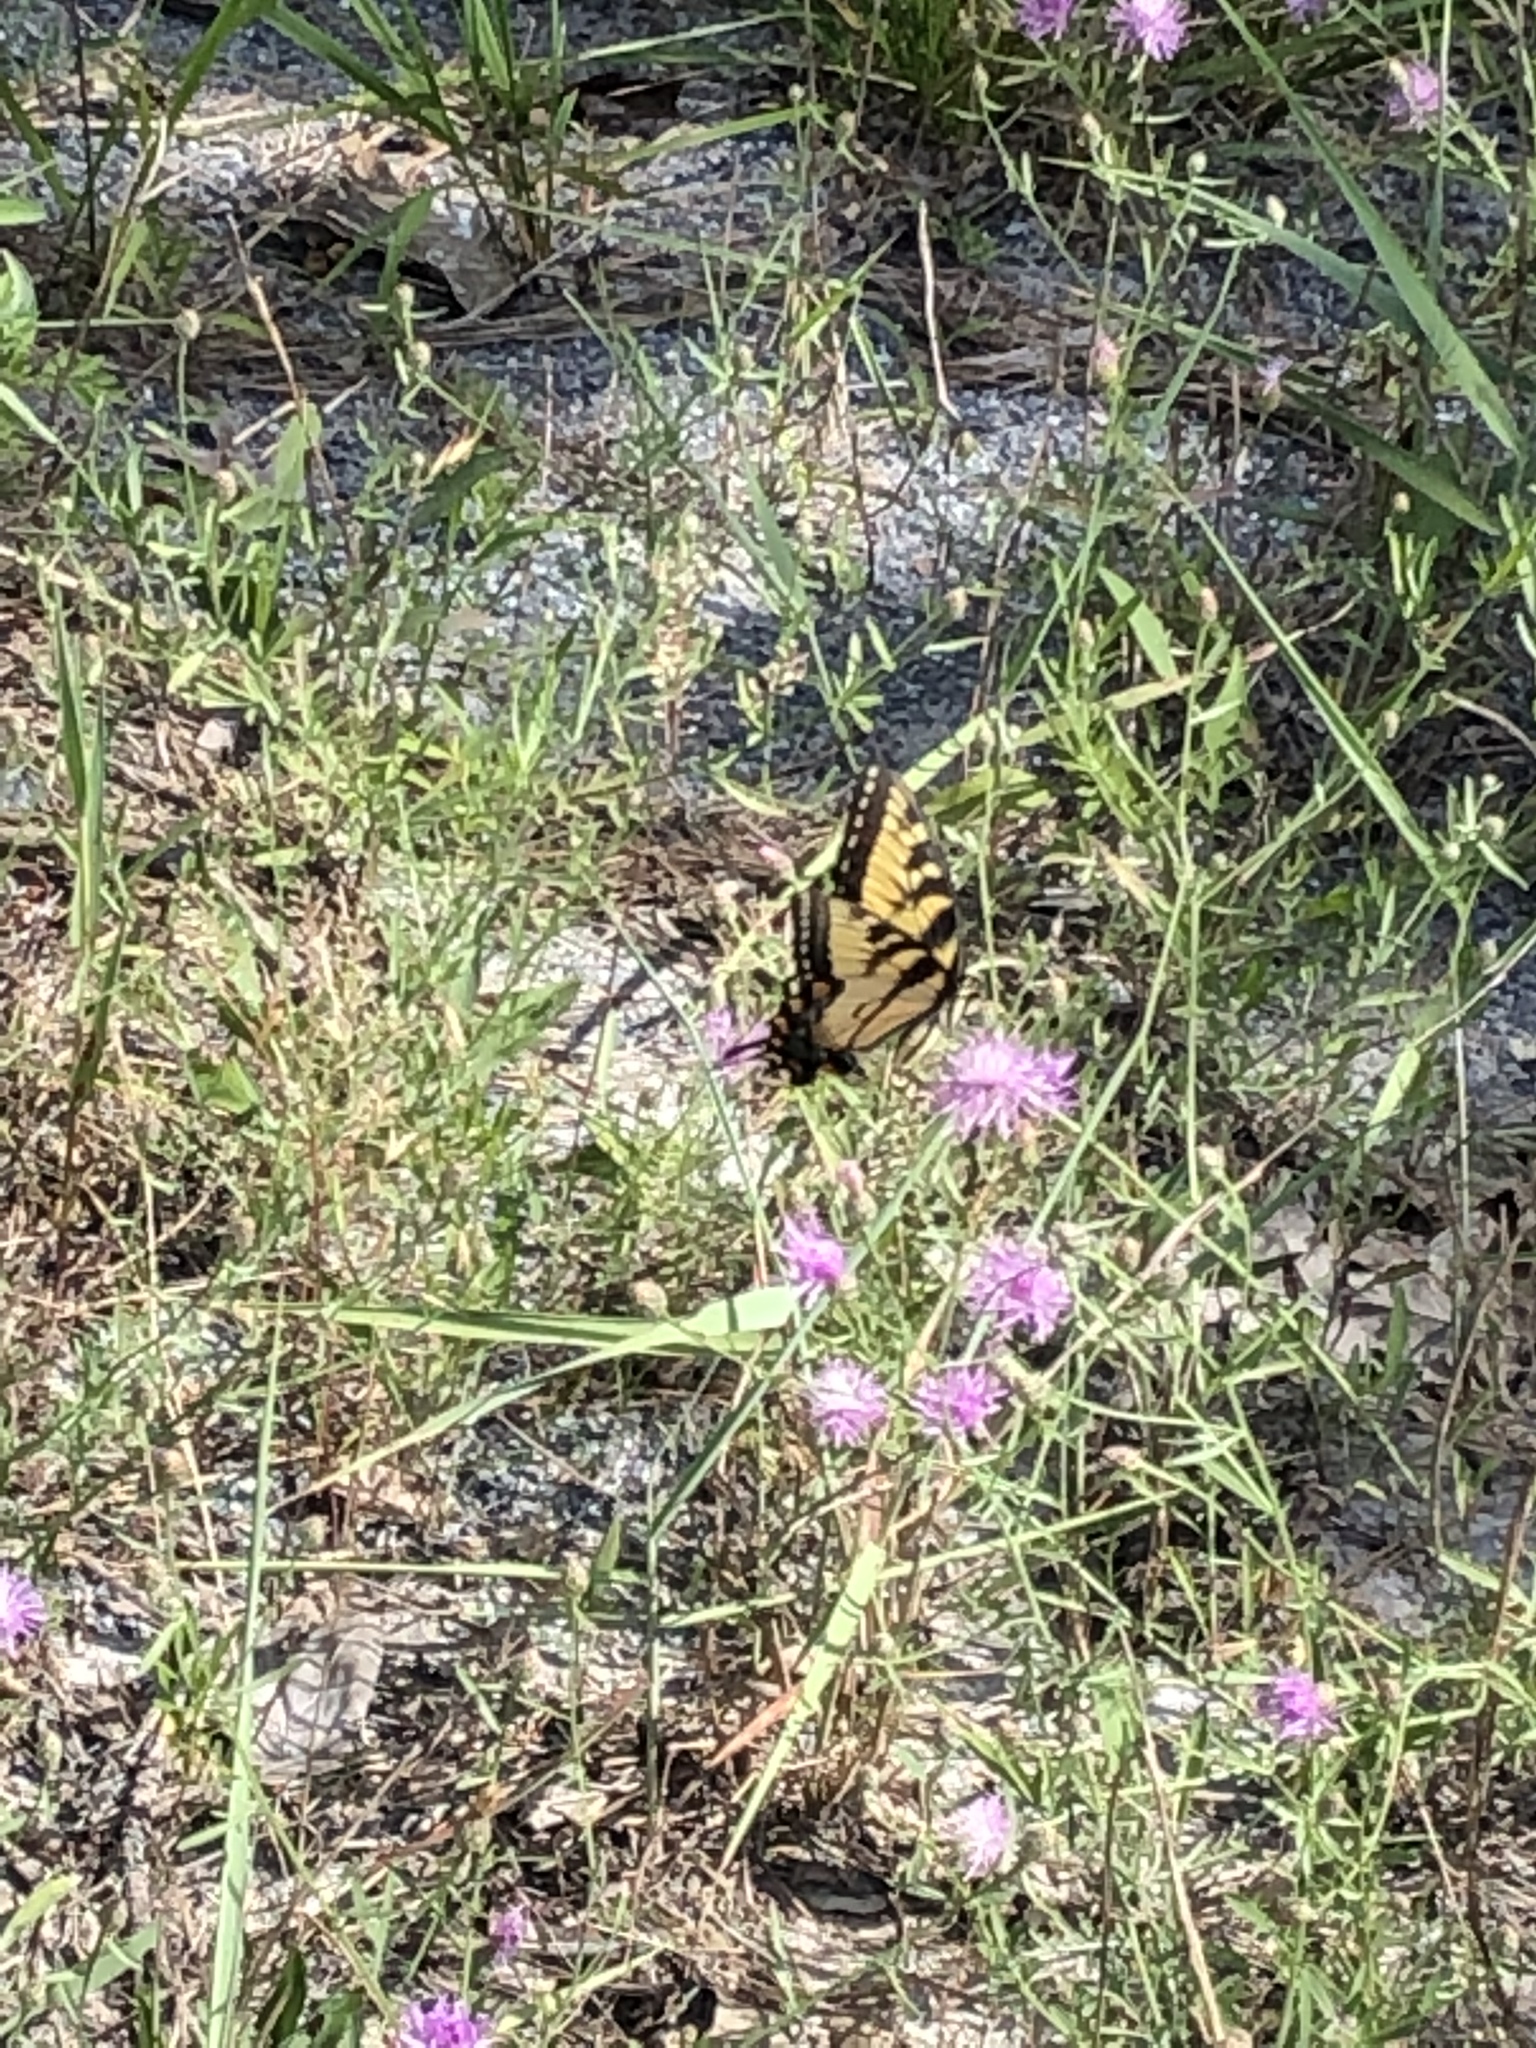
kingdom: Animalia
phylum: Arthropoda
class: Insecta
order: Lepidoptera
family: Papilionidae
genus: Papilio
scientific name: Papilio glaucus
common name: Tiger swallowtail
